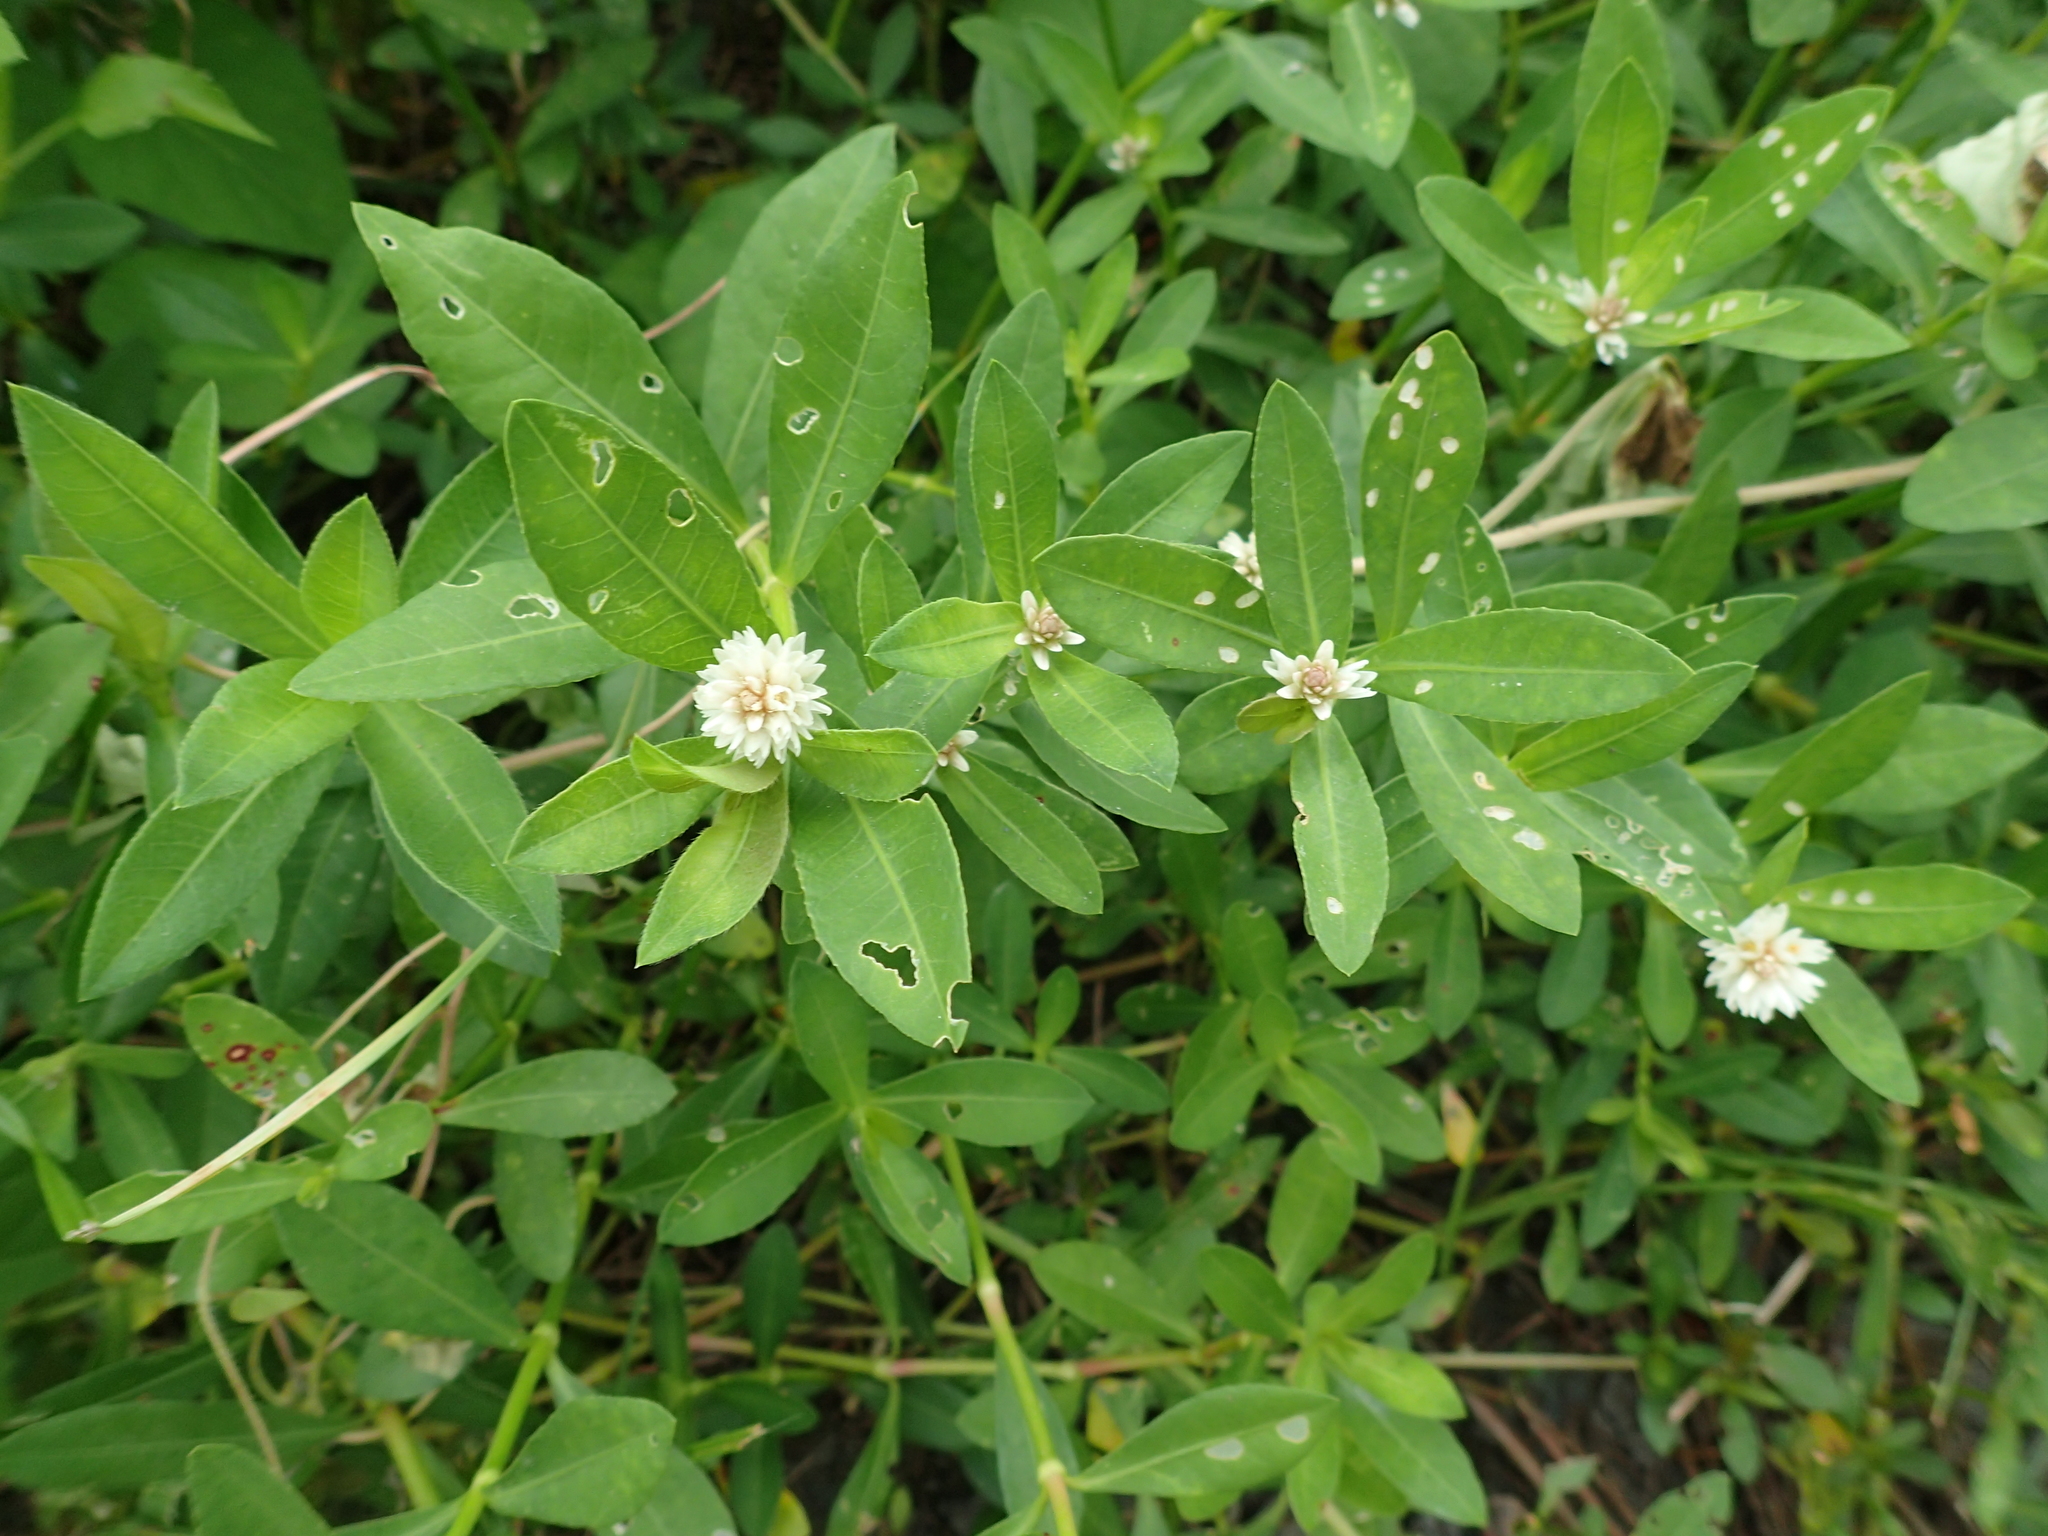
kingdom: Plantae
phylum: Tracheophyta
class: Magnoliopsida
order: Caryophyllales
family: Amaranthaceae
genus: Alternanthera
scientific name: Alternanthera philoxeroides
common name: Alligatorweed
